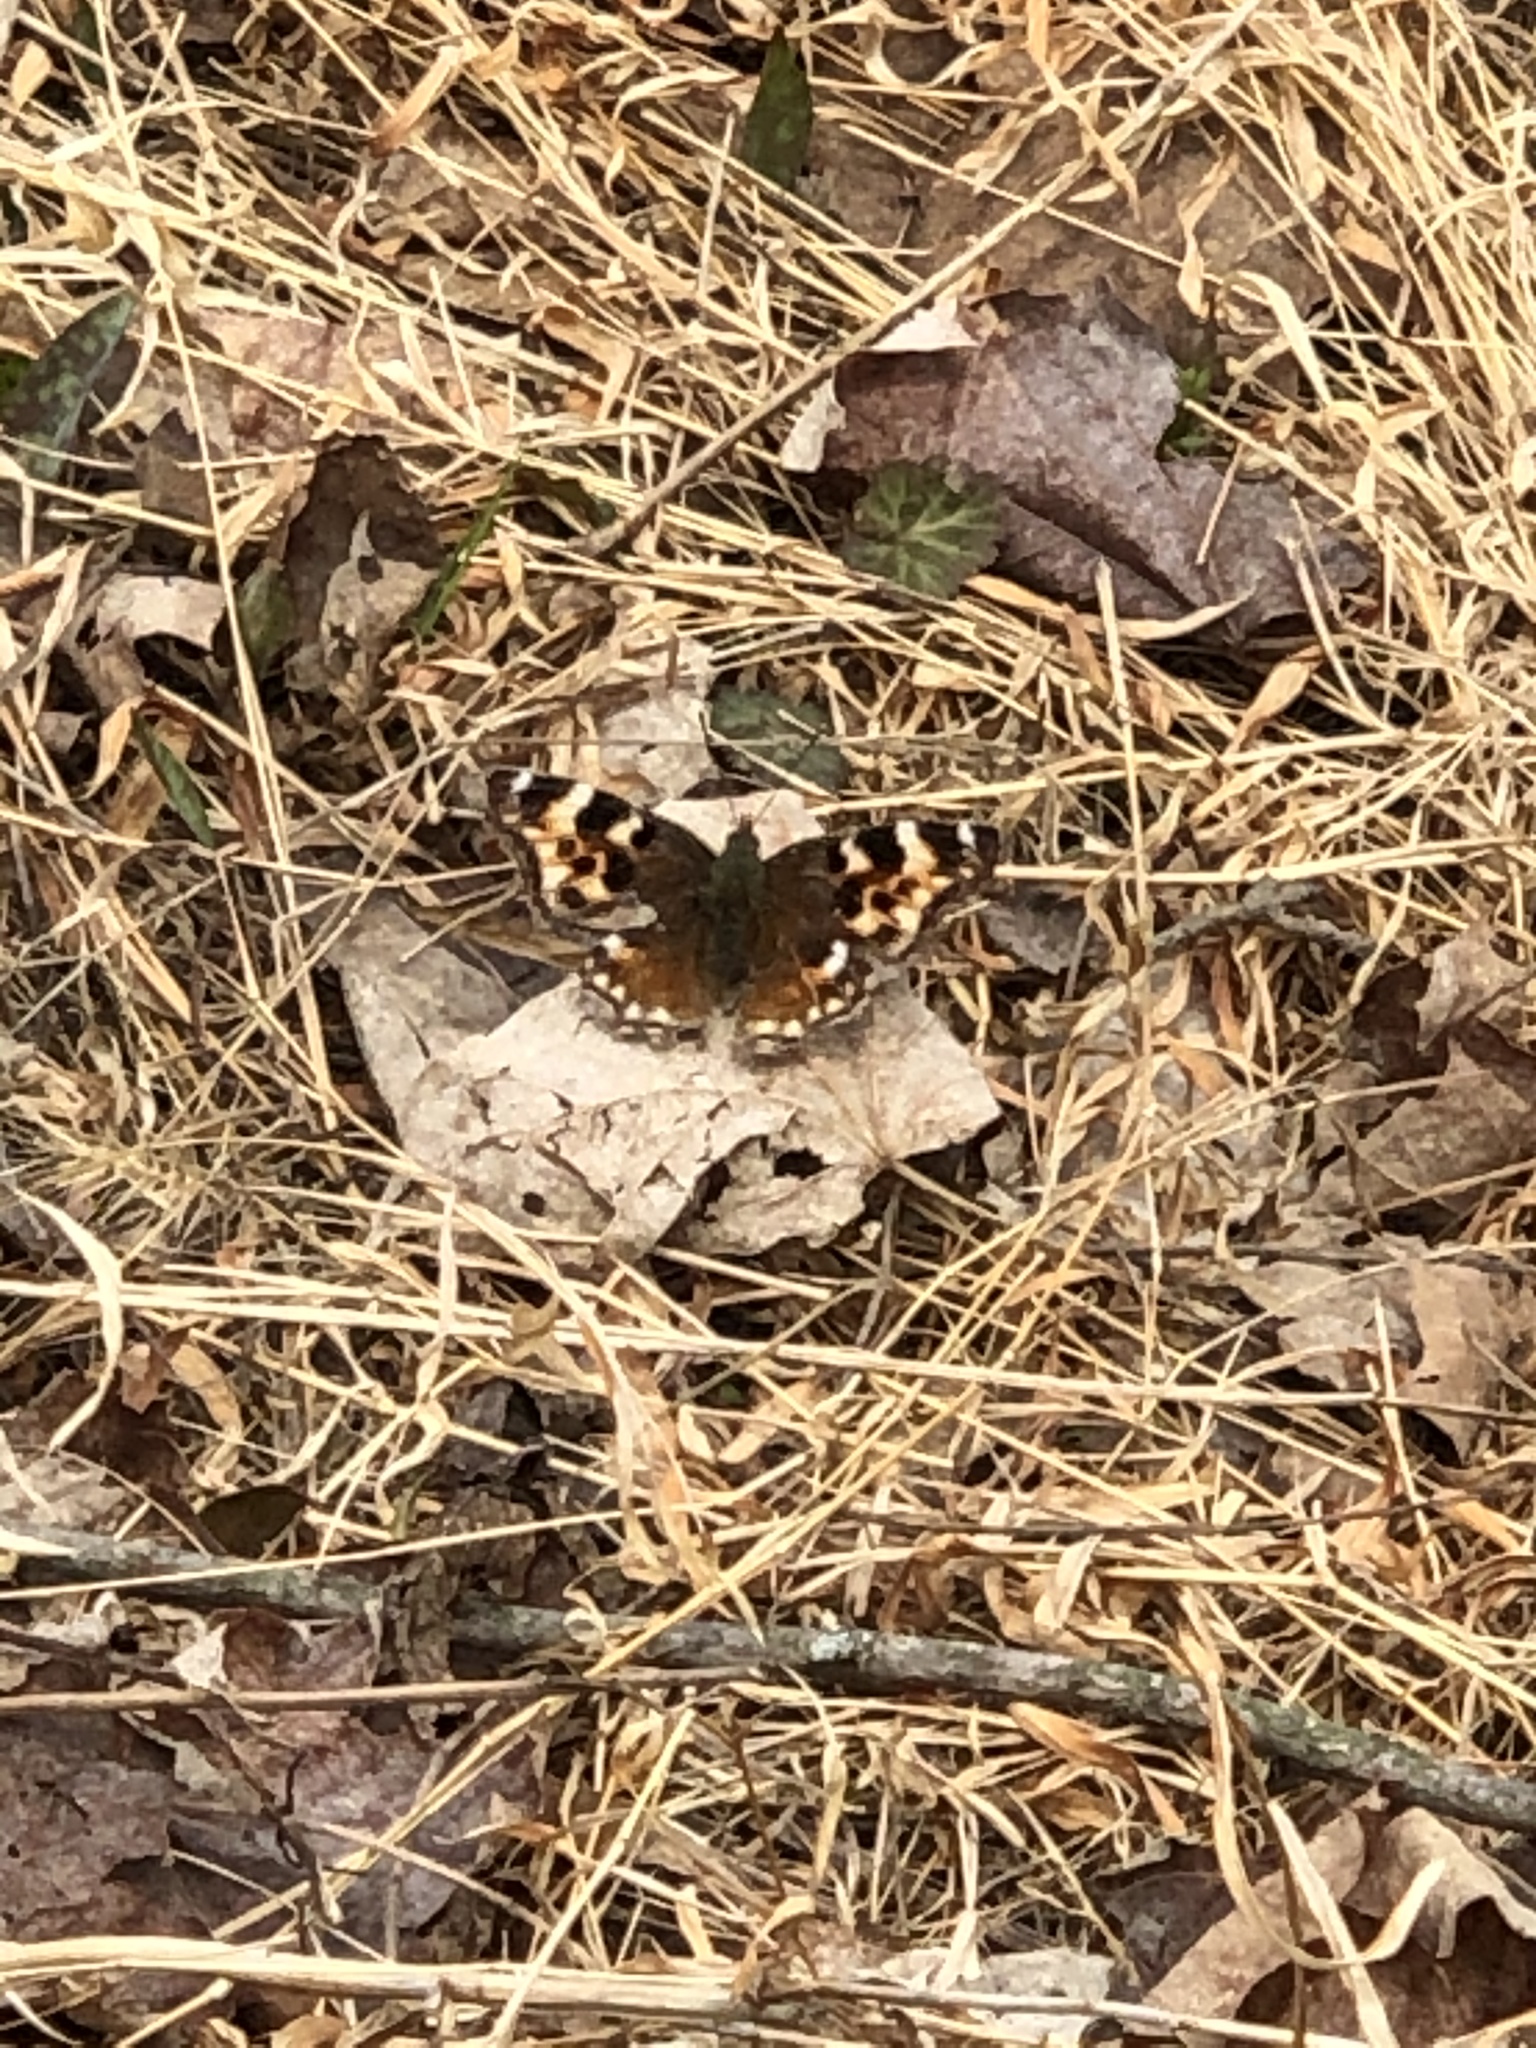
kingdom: Animalia
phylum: Arthropoda
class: Insecta
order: Lepidoptera
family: Nymphalidae
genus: Polygonia
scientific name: Polygonia vaualbum
